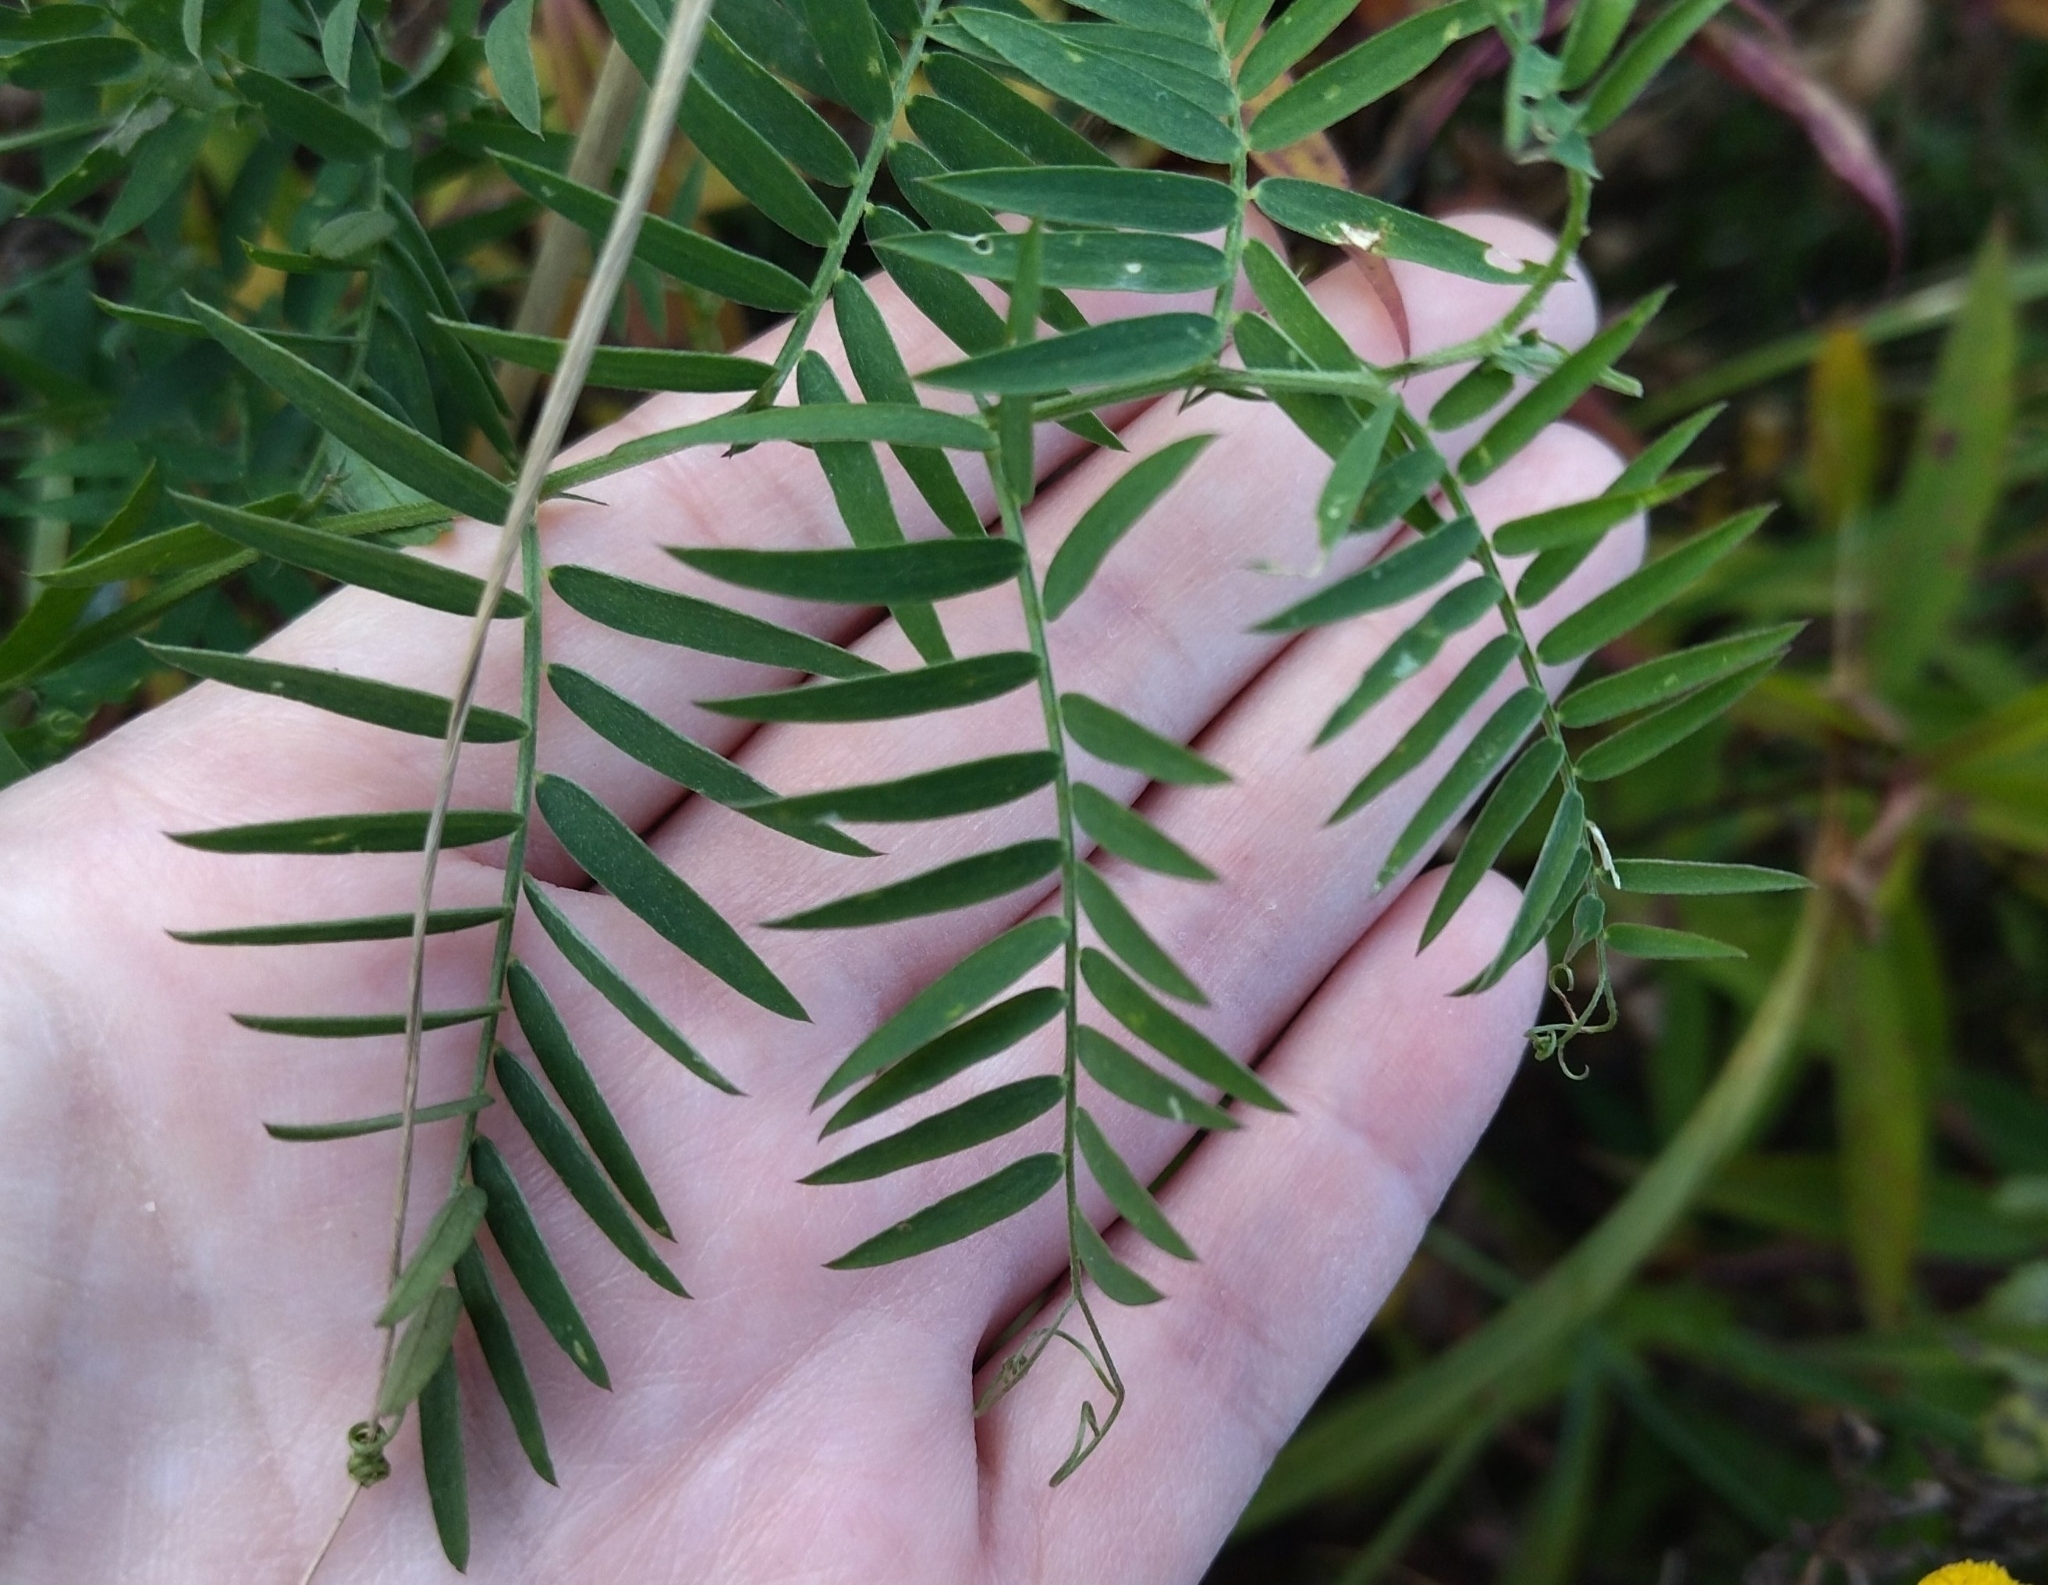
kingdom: Plantae
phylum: Tracheophyta
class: Magnoliopsida
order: Fabales
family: Fabaceae
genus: Vicia
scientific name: Vicia cracca
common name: Bird vetch
